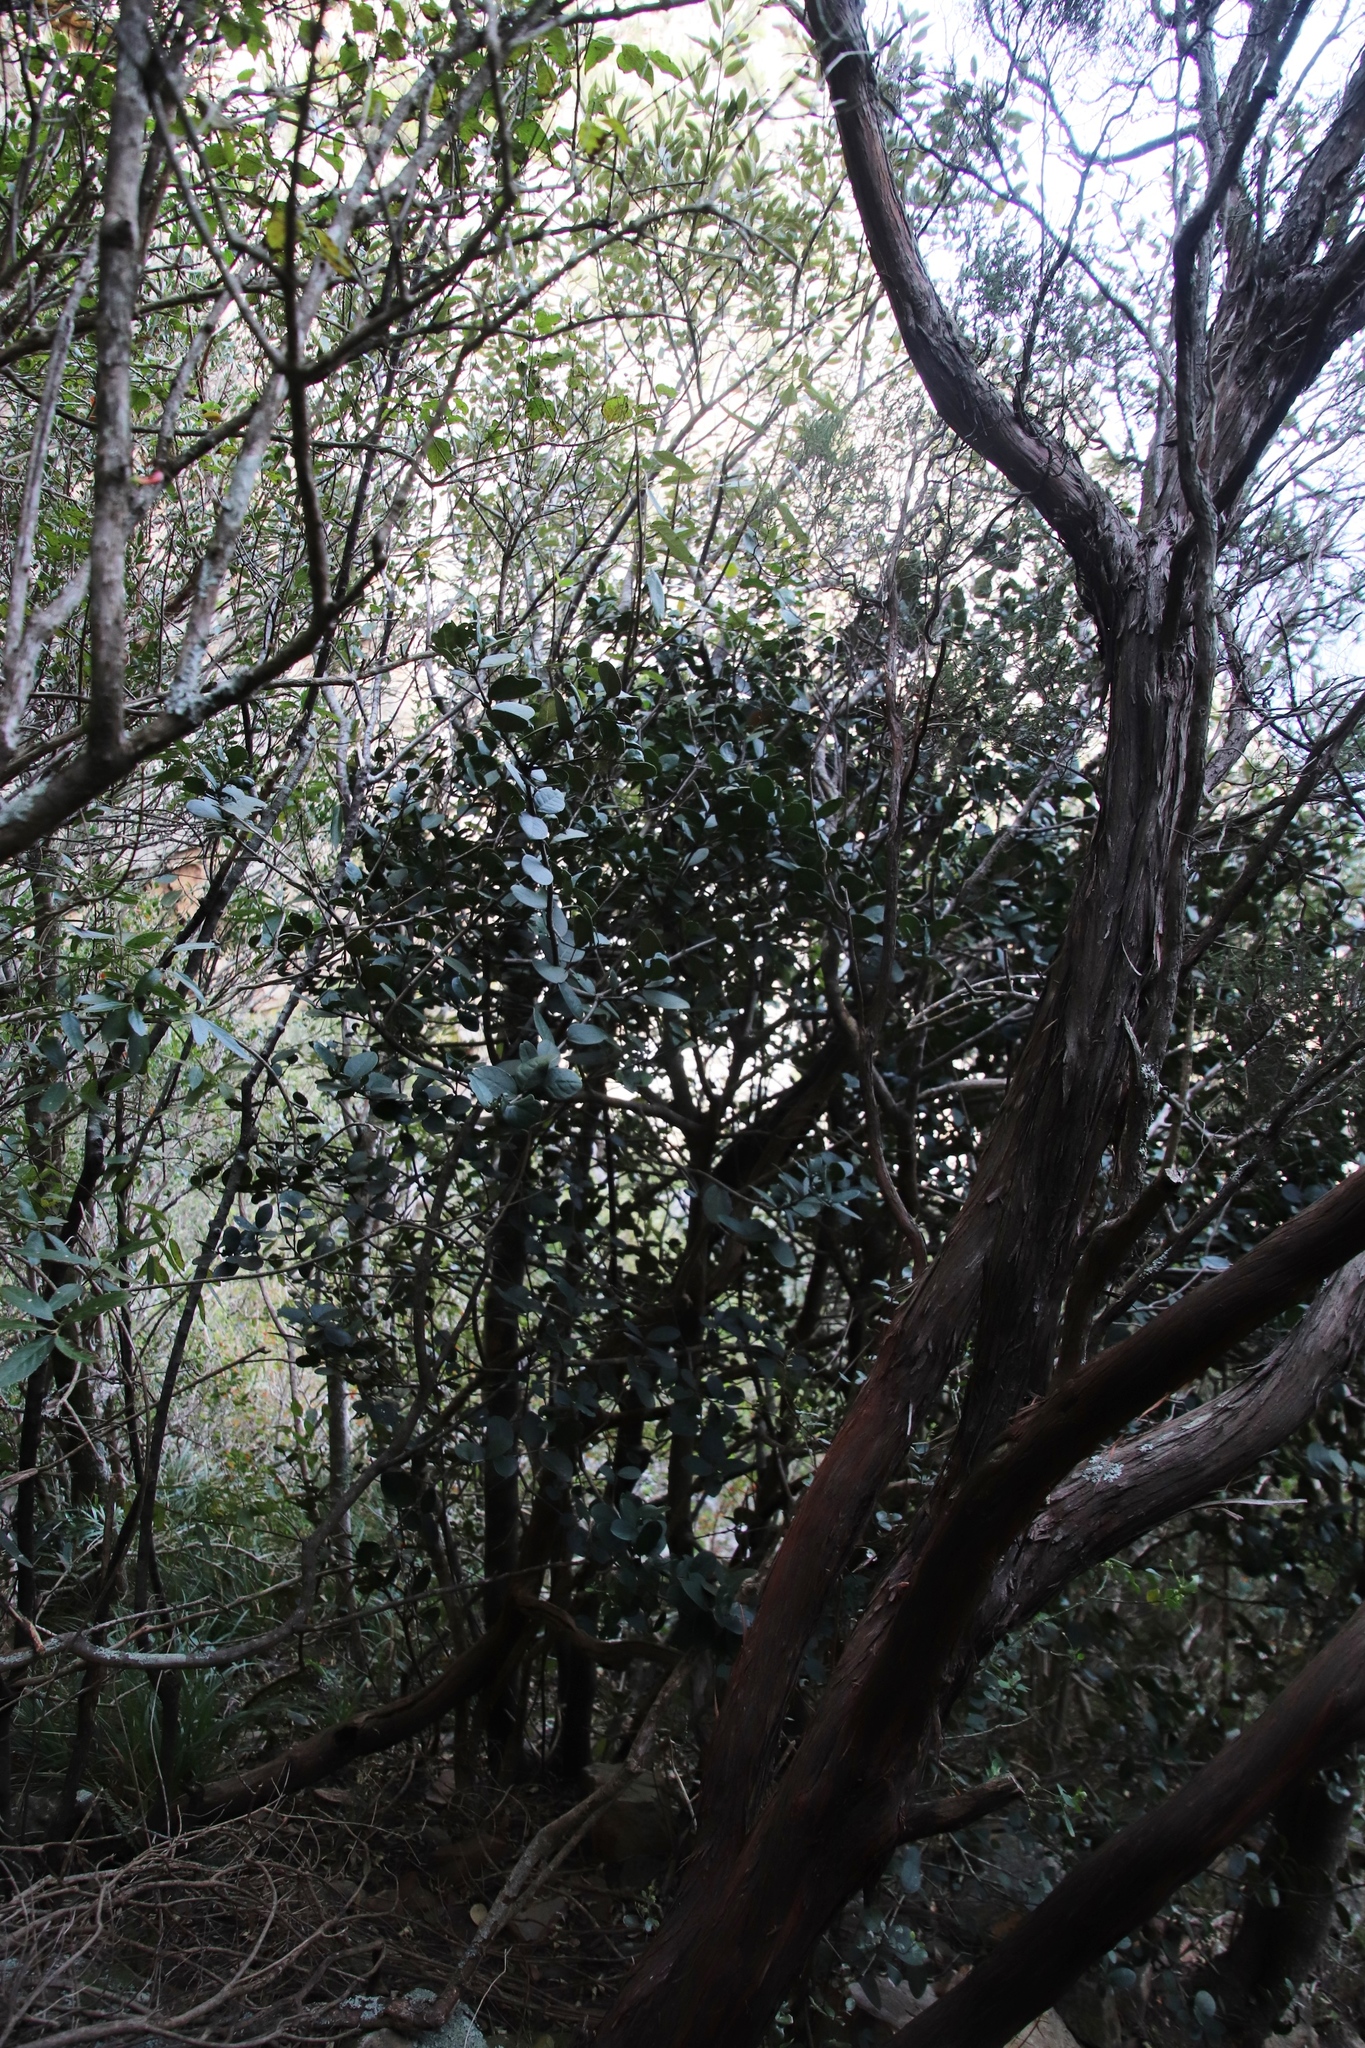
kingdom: Plantae
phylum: Tracheophyta
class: Magnoliopsida
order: Celastrales
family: Celastraceae
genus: Maurocenia
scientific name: Maurocenia frangula
